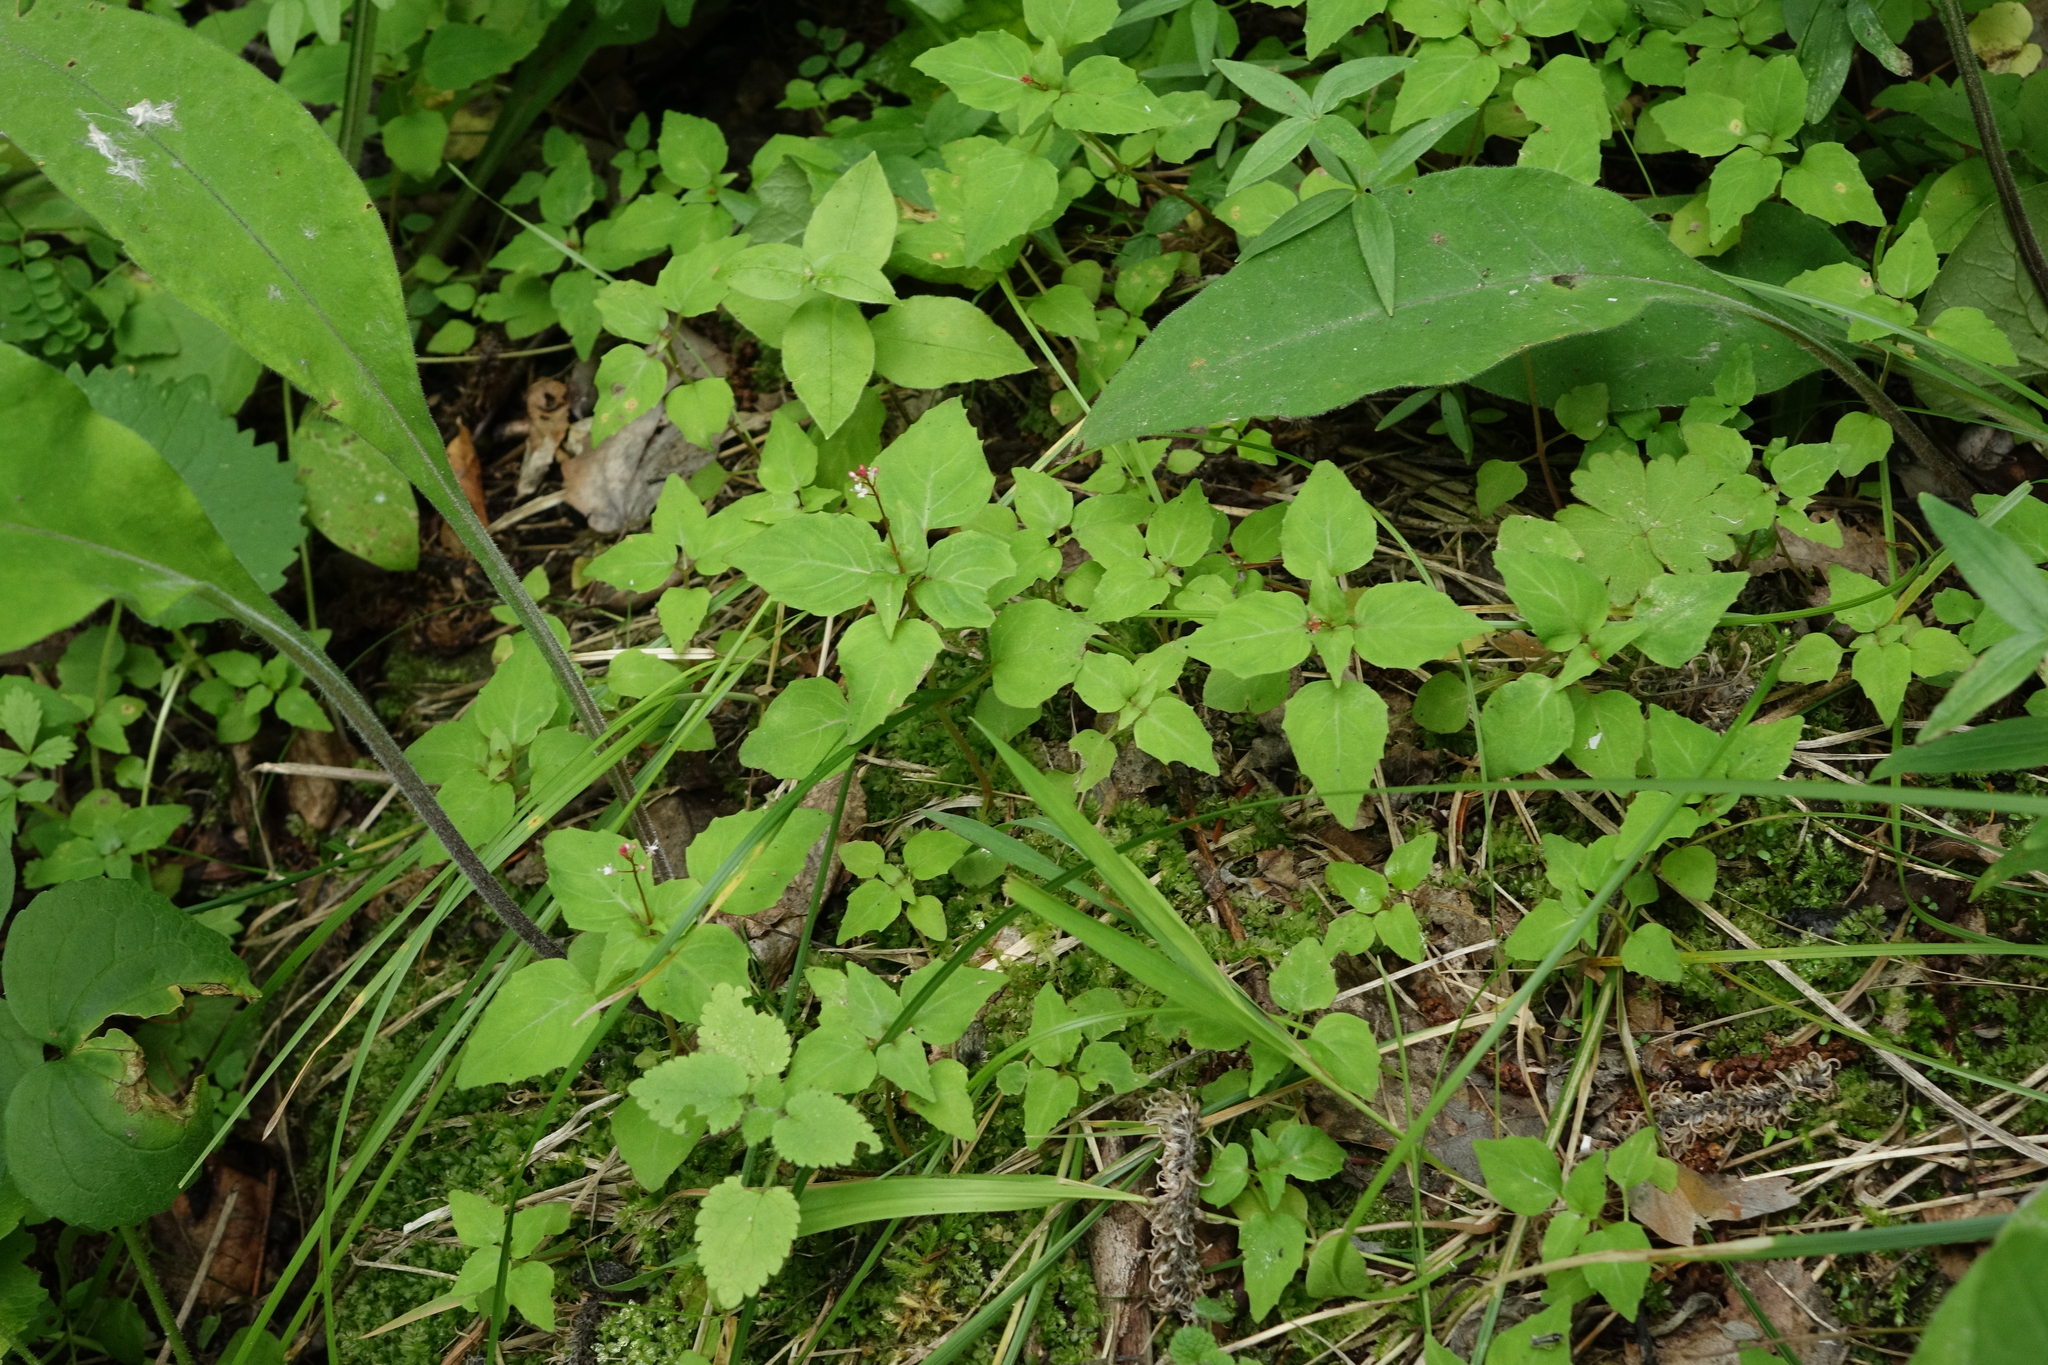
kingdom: Plantae
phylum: Tracheophyta
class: Magnoliopsida
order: Myrtales
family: Onagraceae
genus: Circaea
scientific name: Circaea alpina
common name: Alpine enchanter's-nightshade
